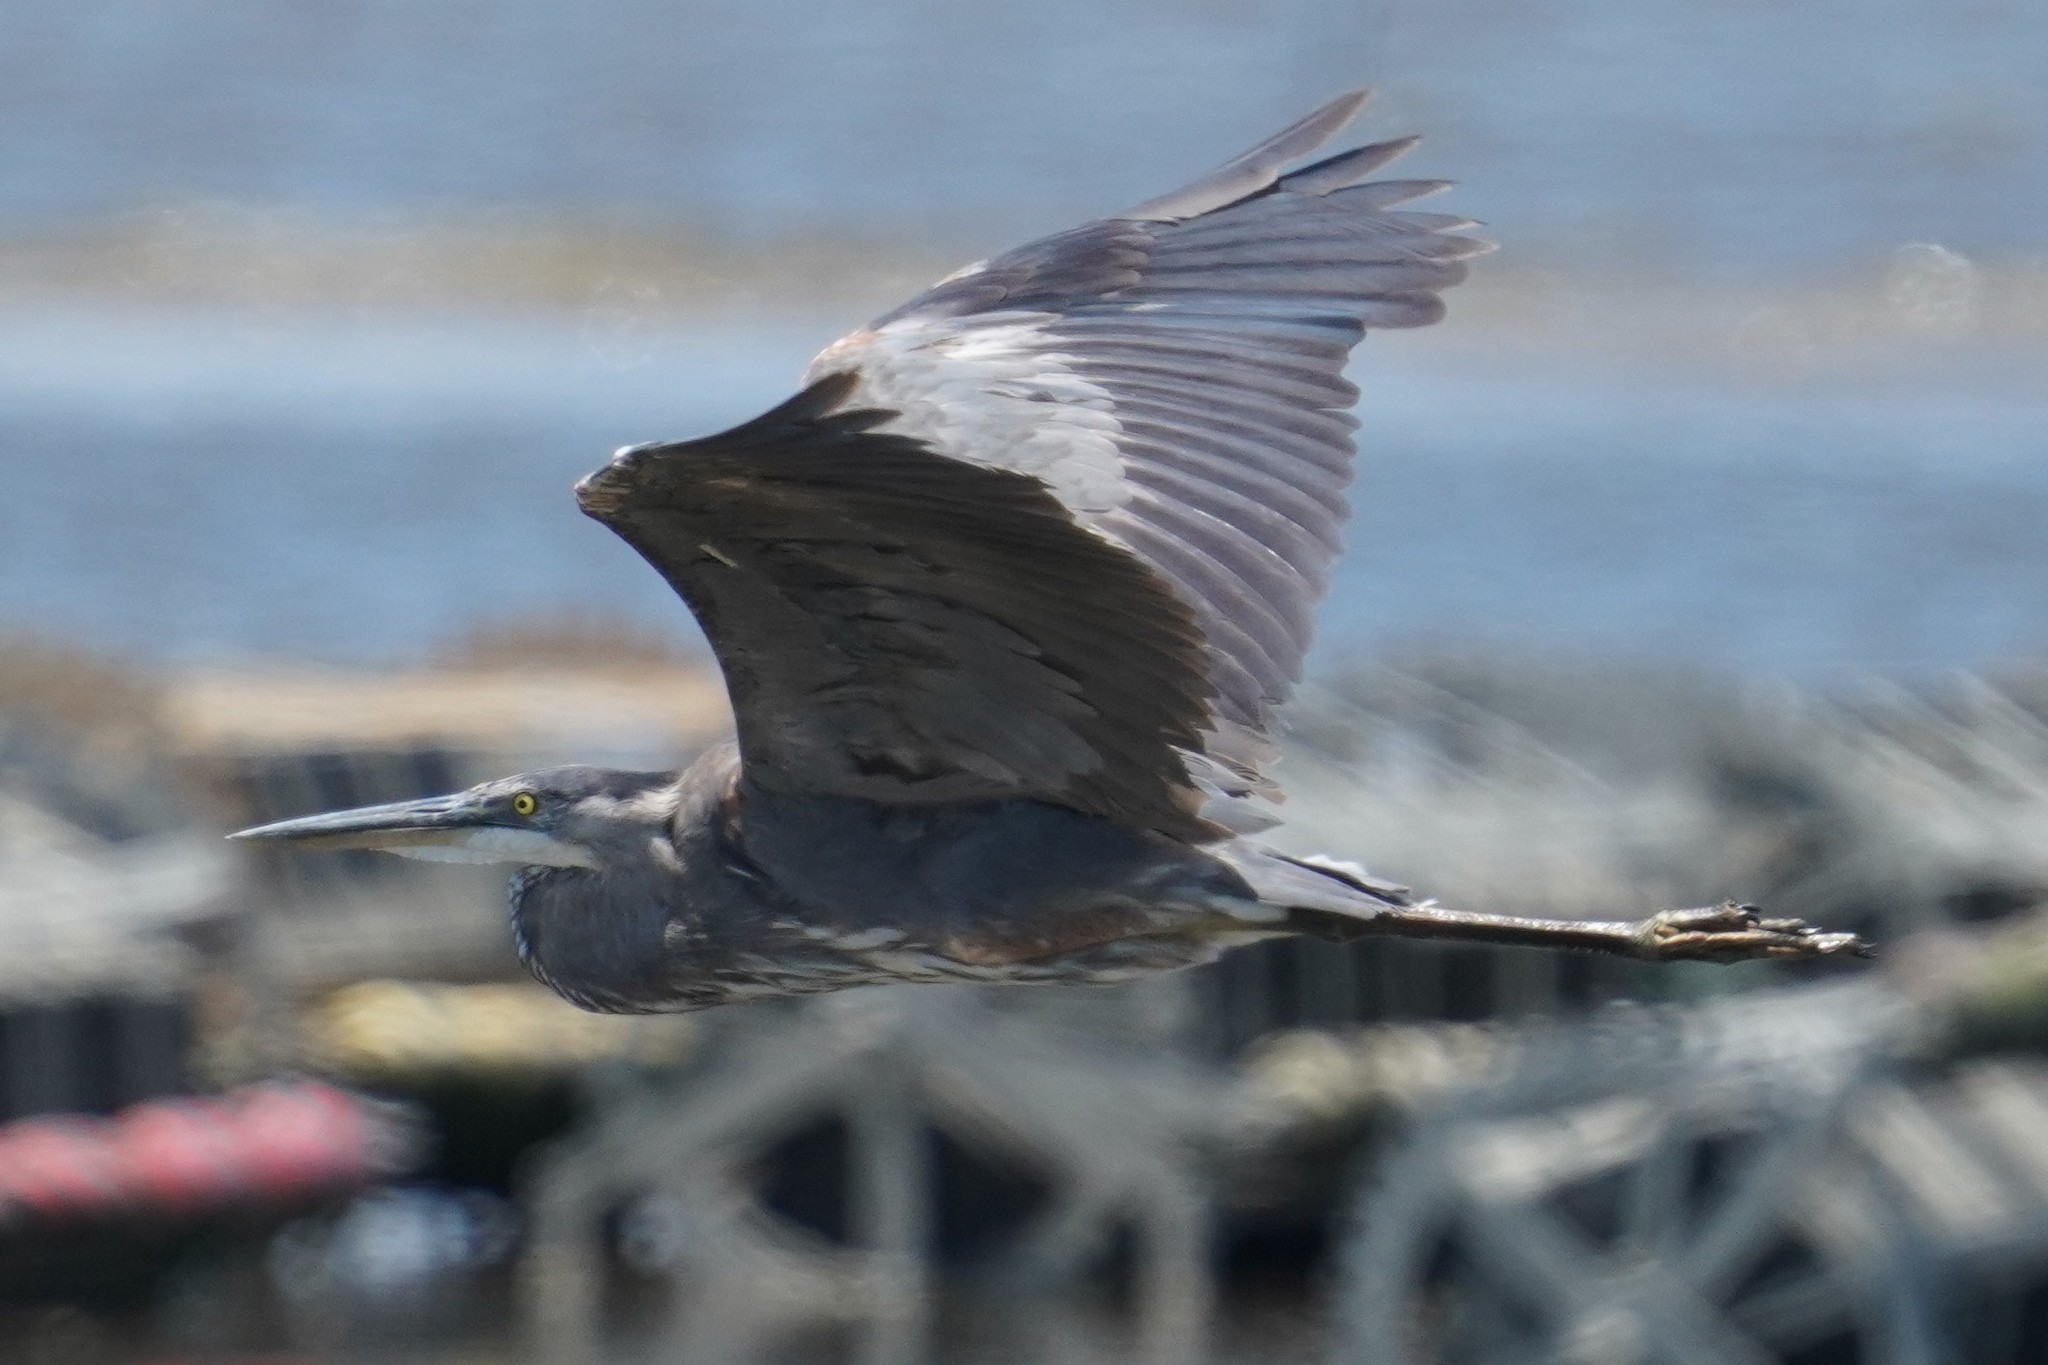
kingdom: Animalia
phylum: Chordata
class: Aves
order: Pelecaniformes
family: Ardeidae
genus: Ardea
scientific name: Ardea herodias
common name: Great blue heron
